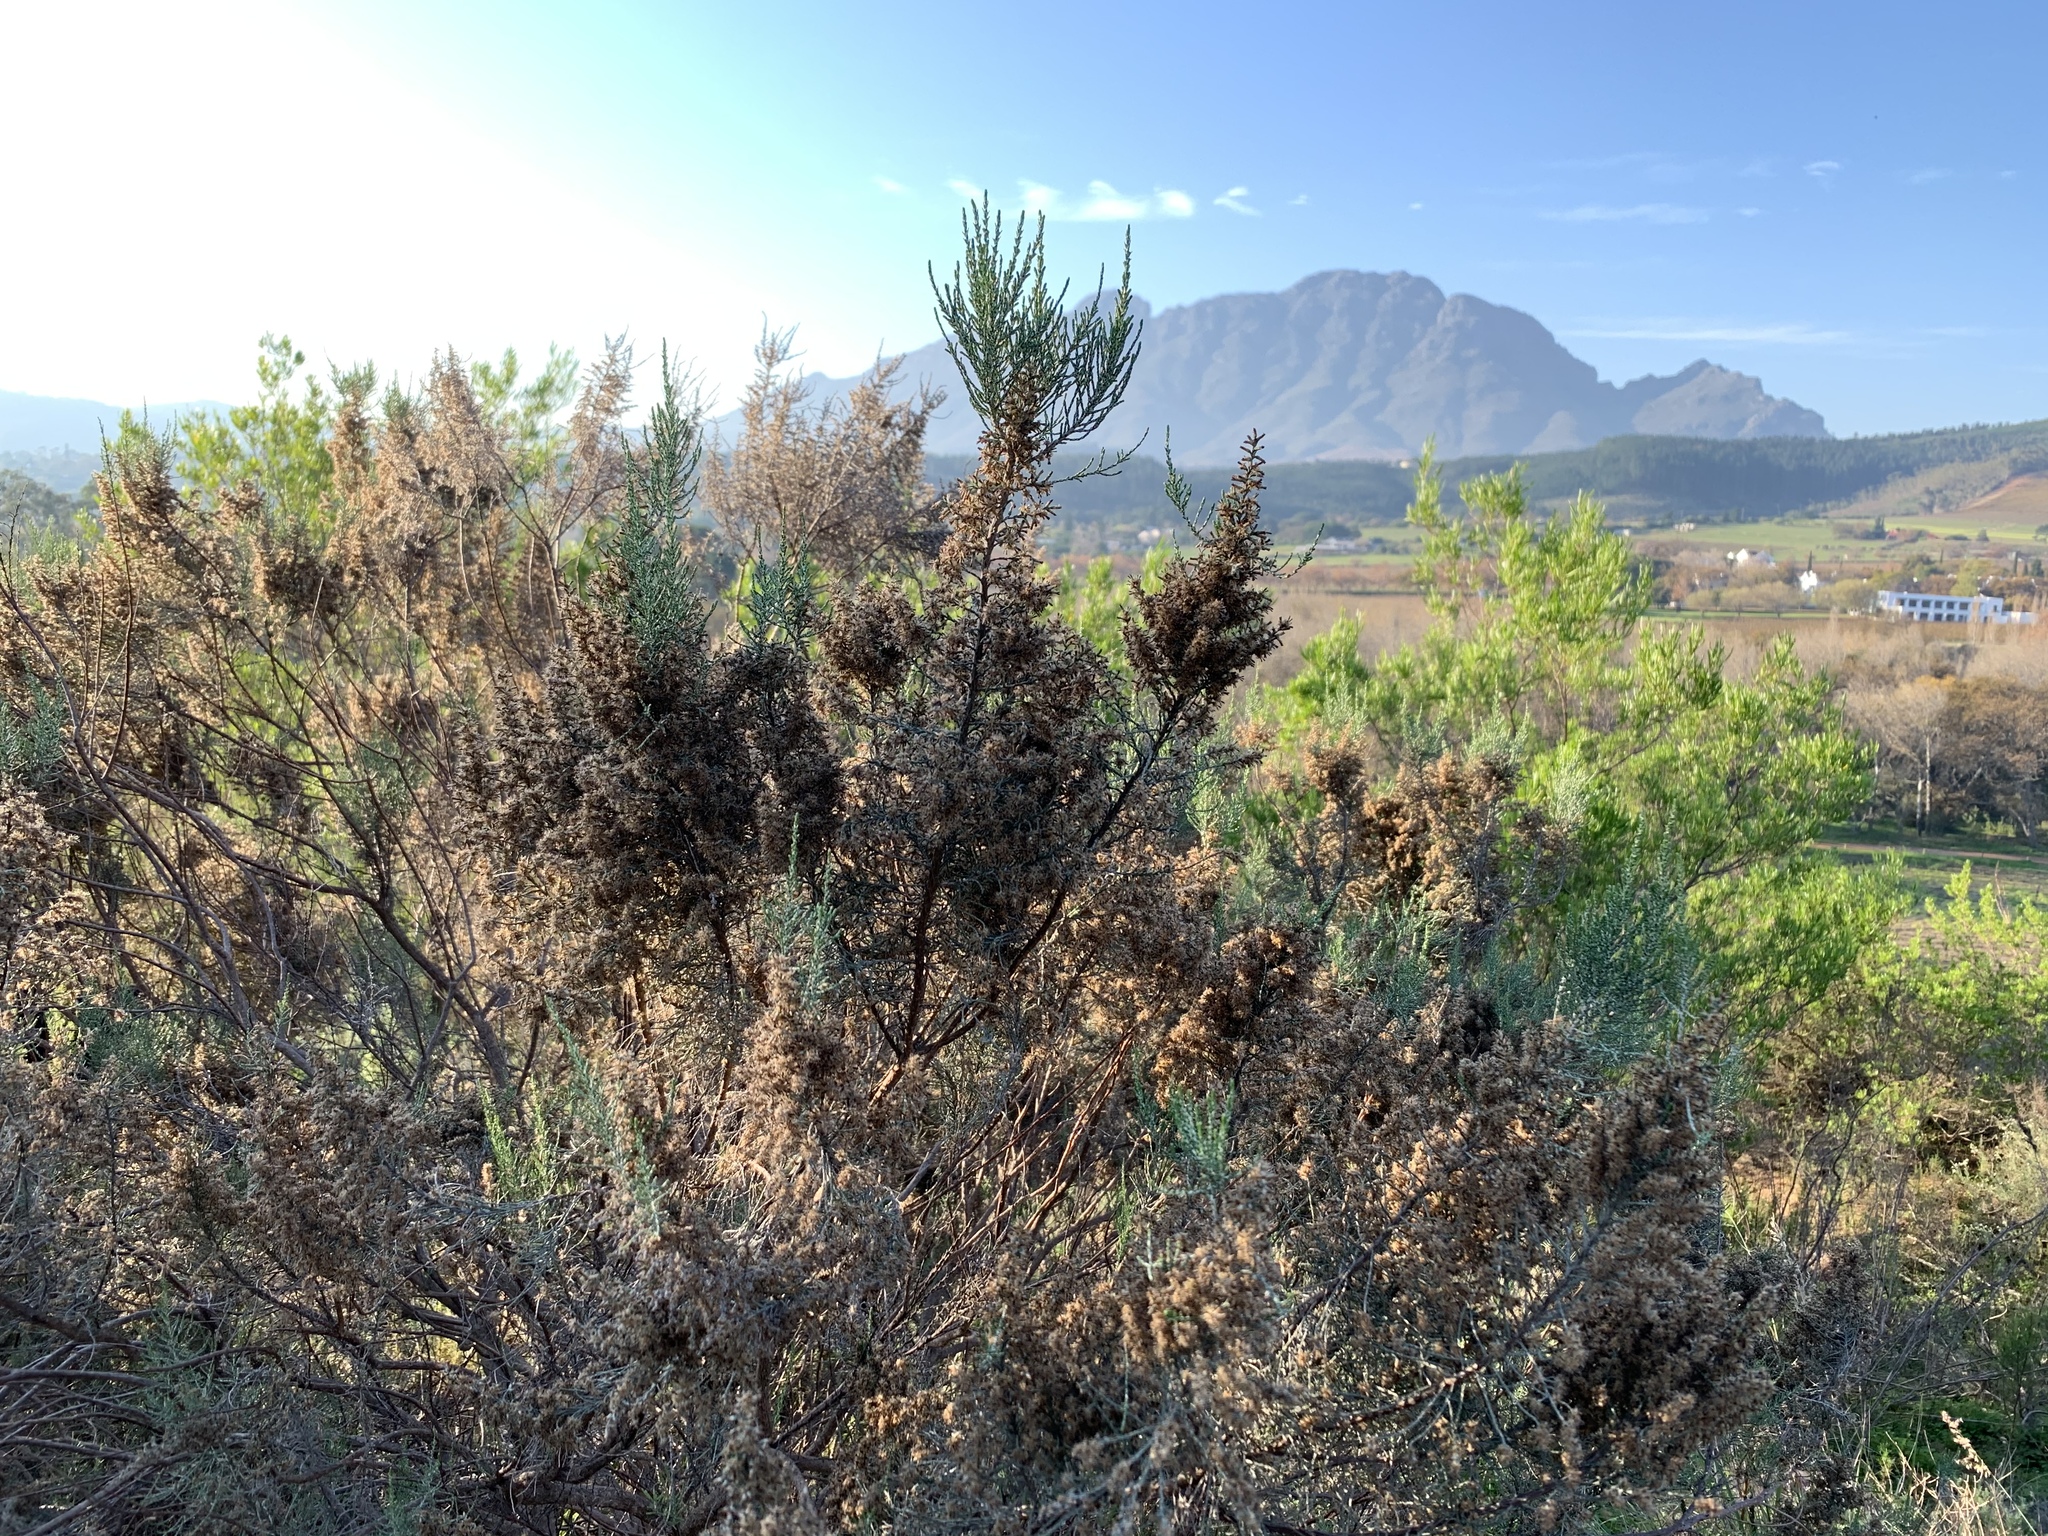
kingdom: Plantae
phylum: Tracheophyta
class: Magnoliopsida
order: Asterales
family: Asteraceae
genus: Dicerothamnus
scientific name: Dicerothamnus rhinocerotis
